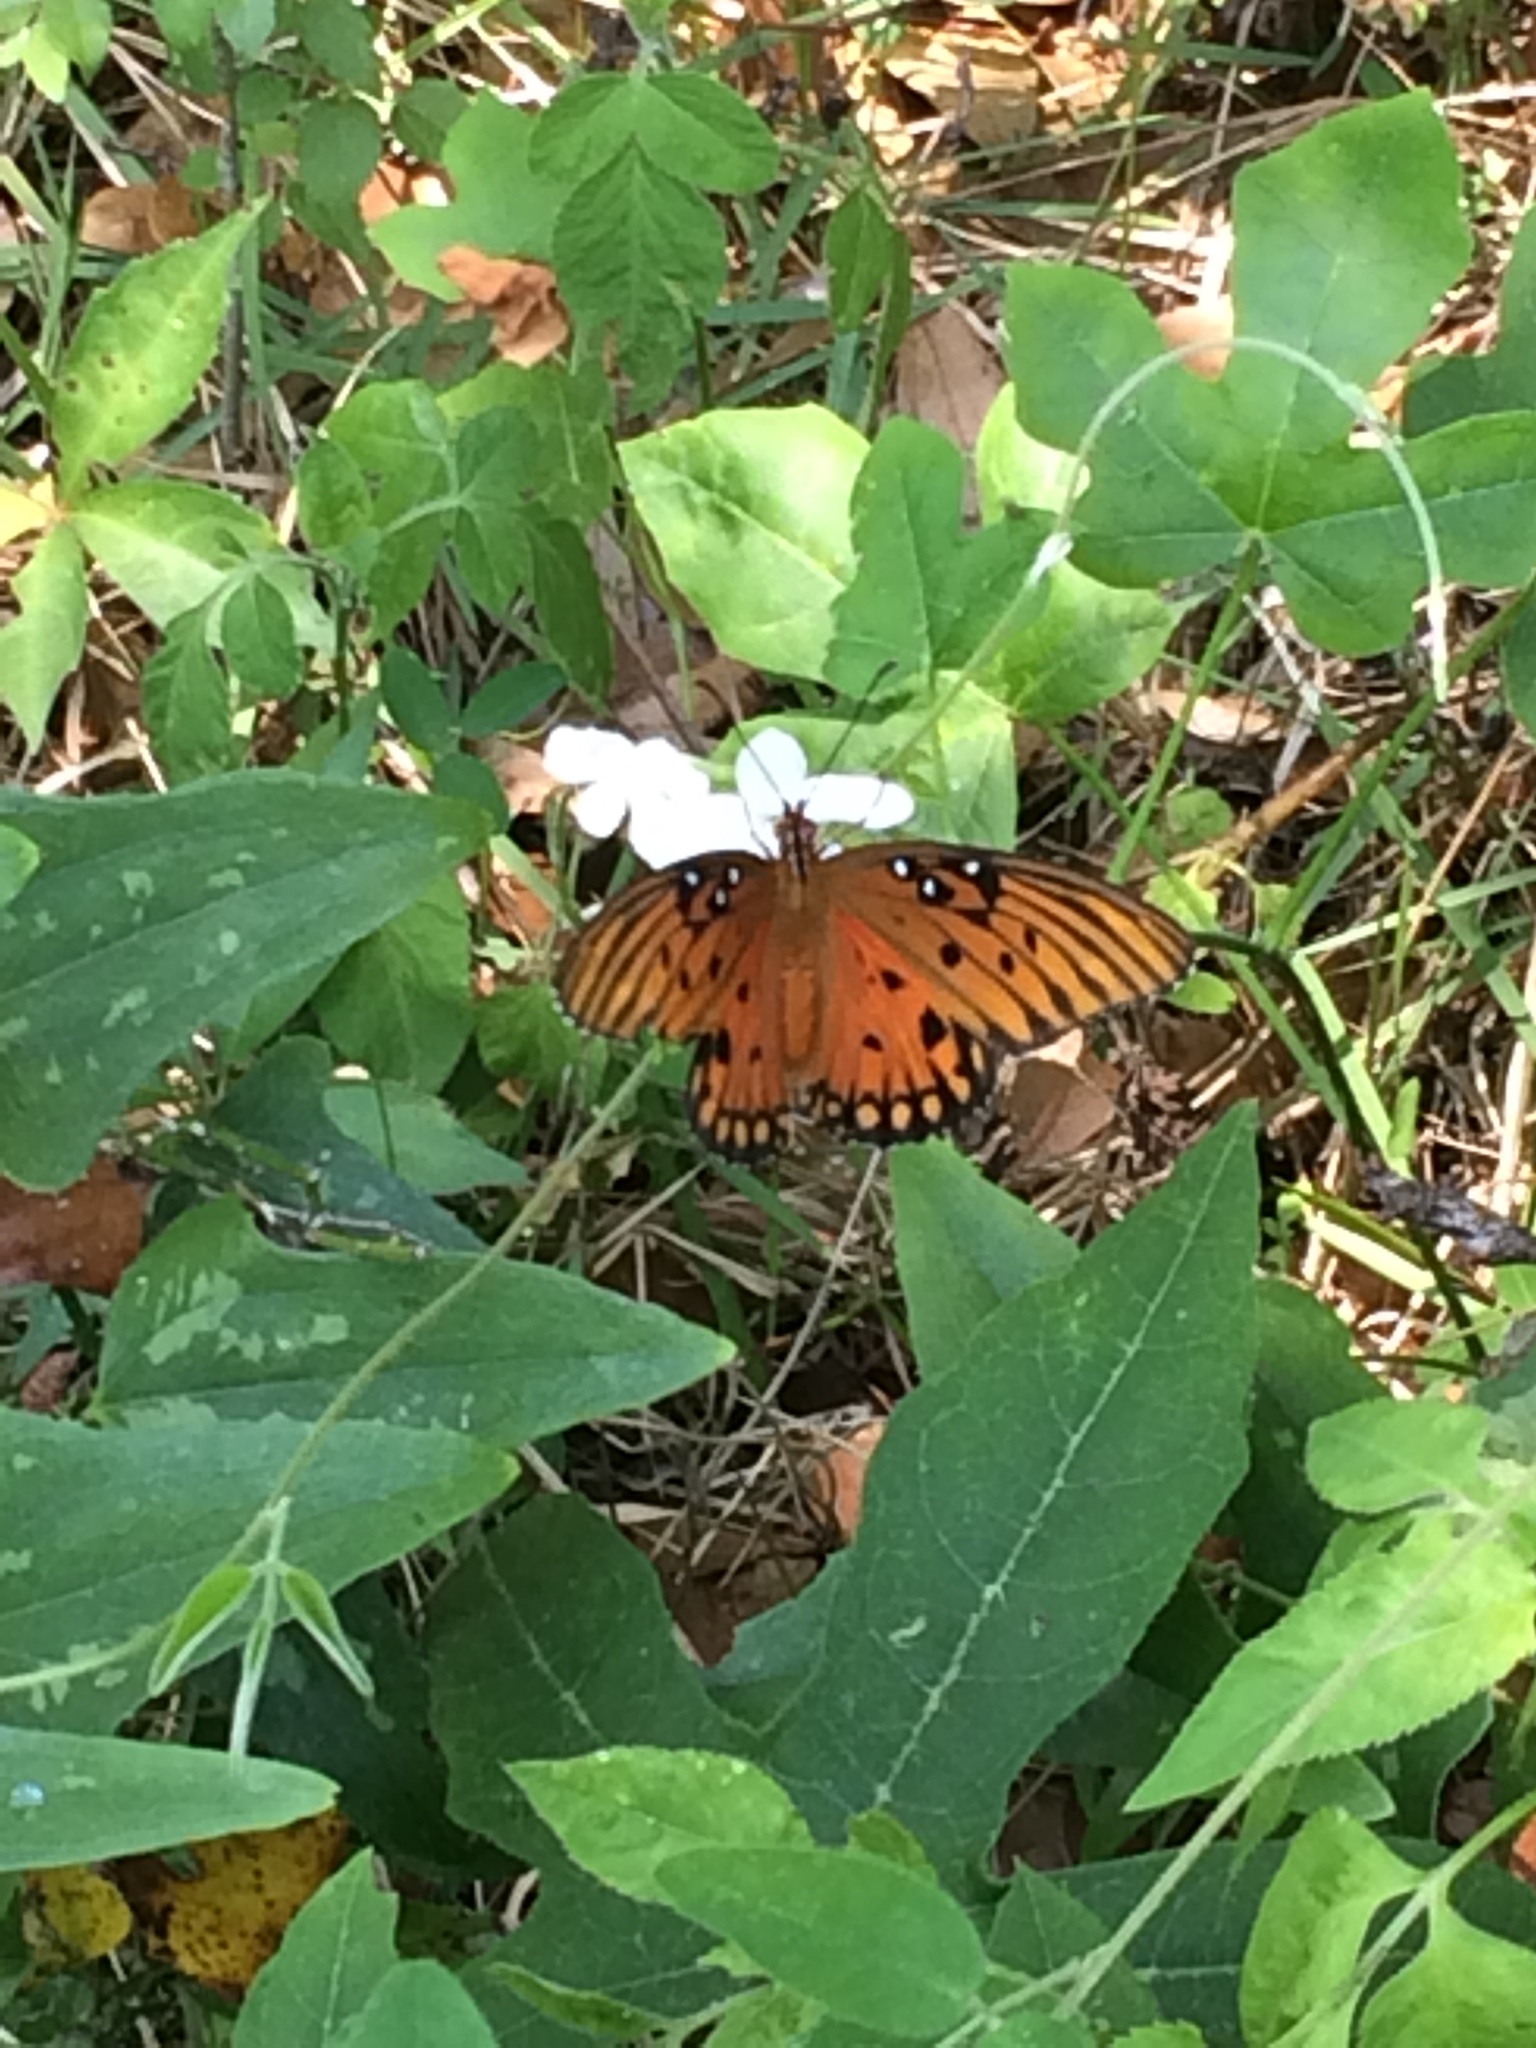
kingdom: Animalia
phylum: Arthropoda
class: Insecta
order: Lepidoptera
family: Nymphalidae
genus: Dione
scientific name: Dione vanillae
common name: Gulf fritillary
